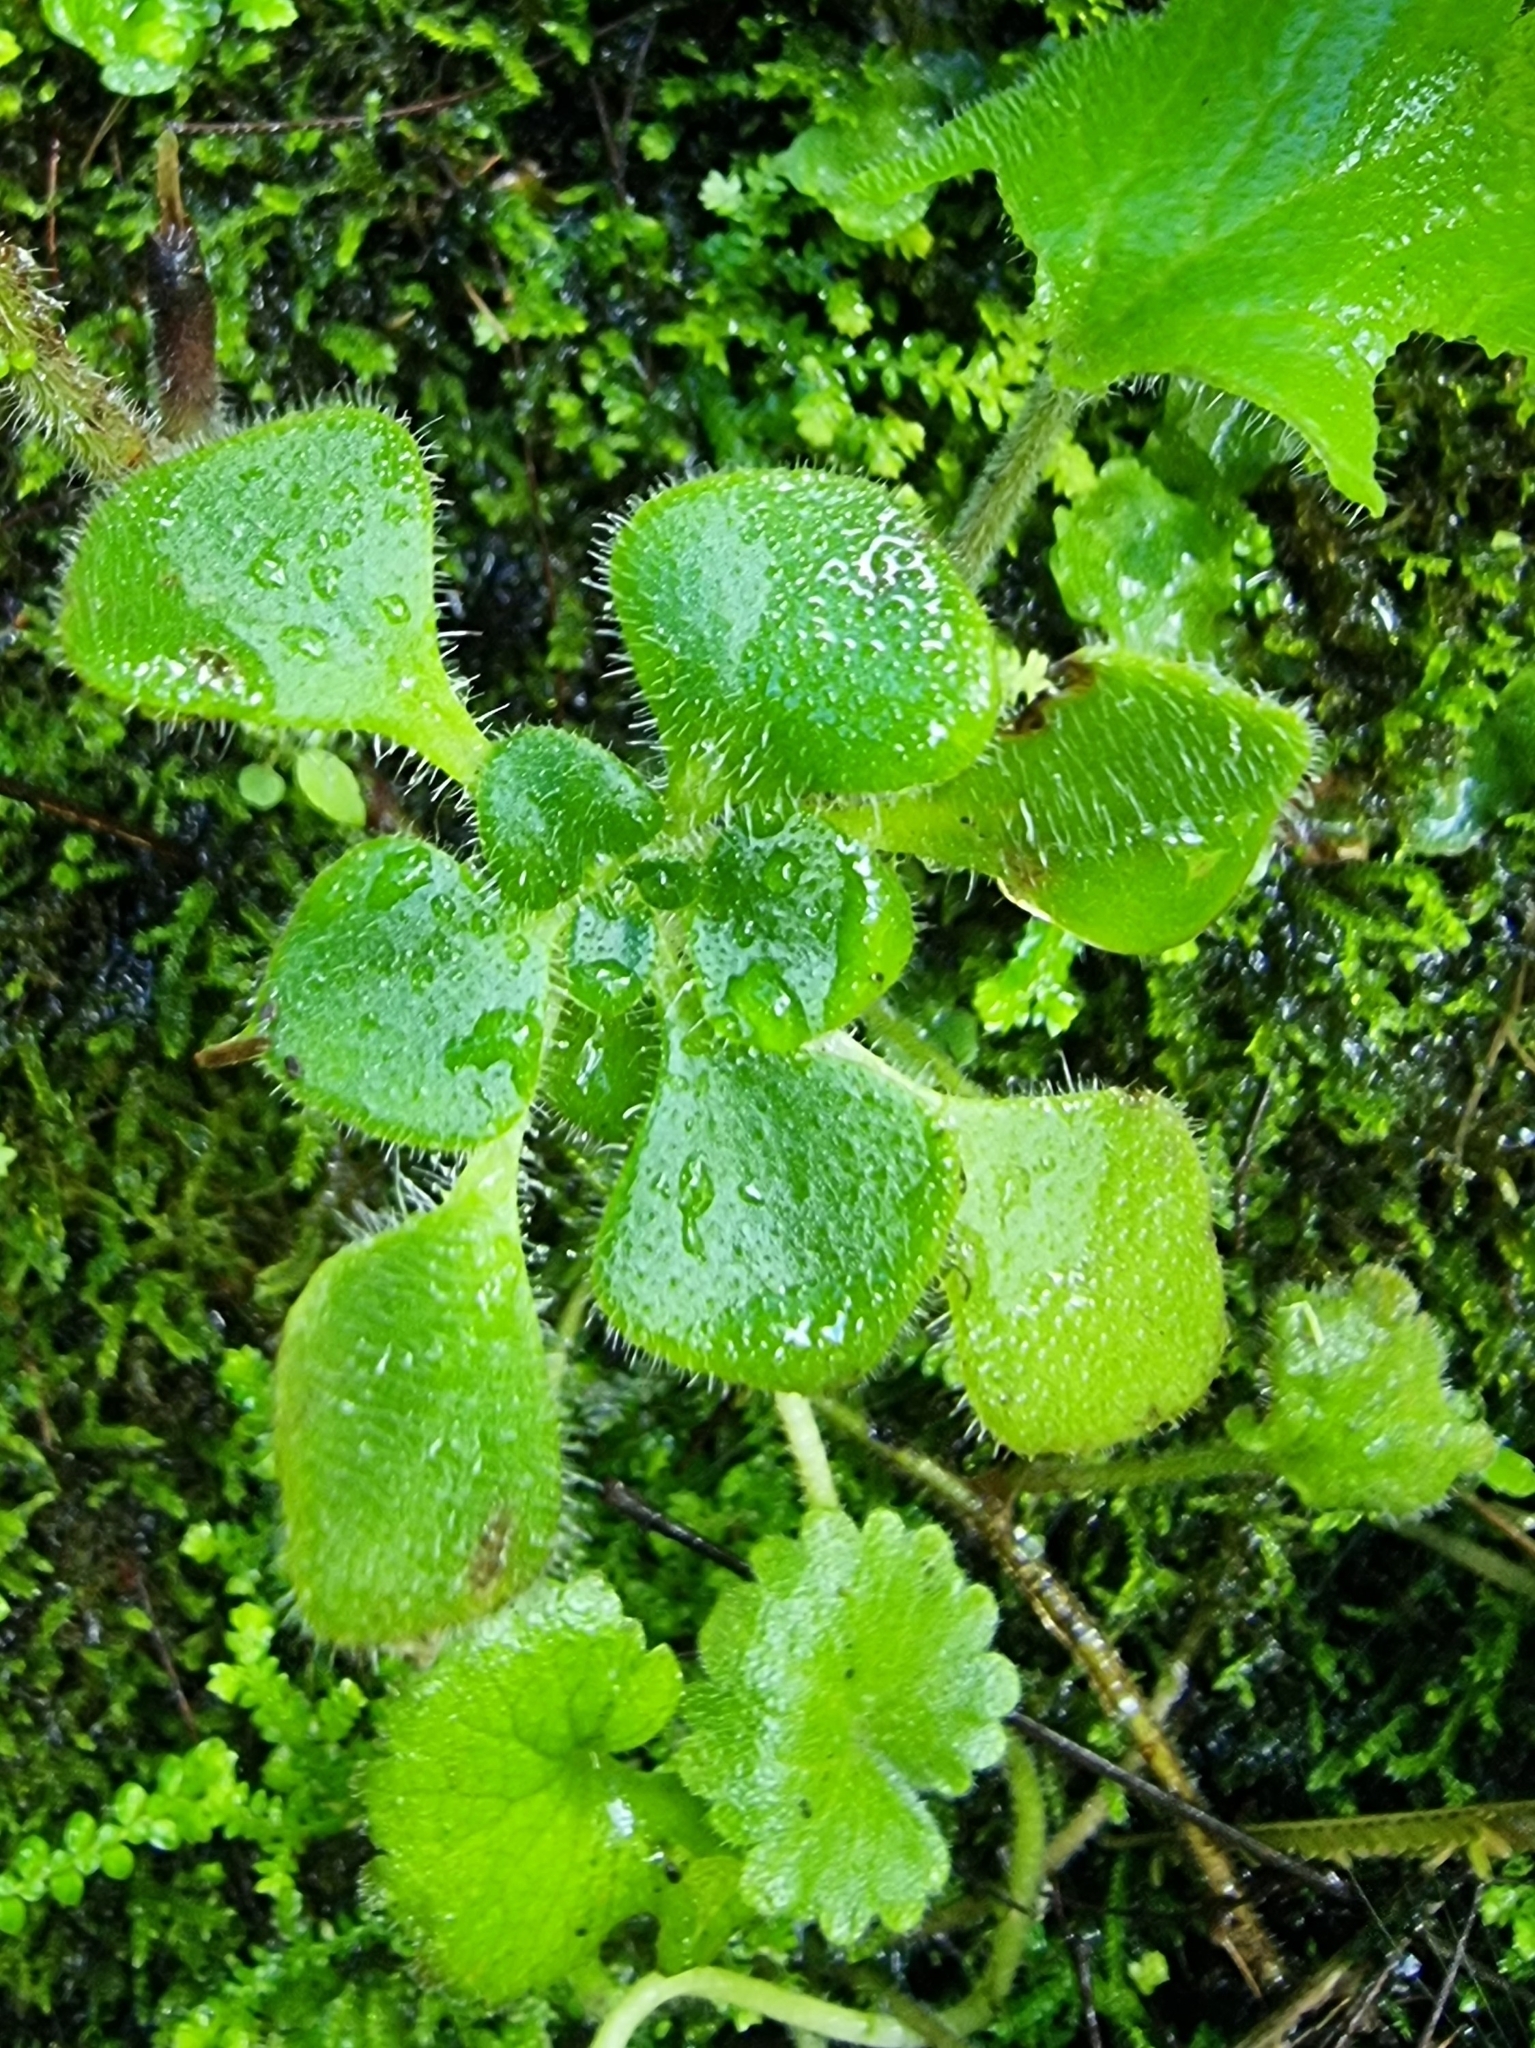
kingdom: Plantae
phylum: Tracheophyta
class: Magnoliopsida
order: Saxifragales
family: Crassulaceae
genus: Aichryson
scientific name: Aichryson villosum
